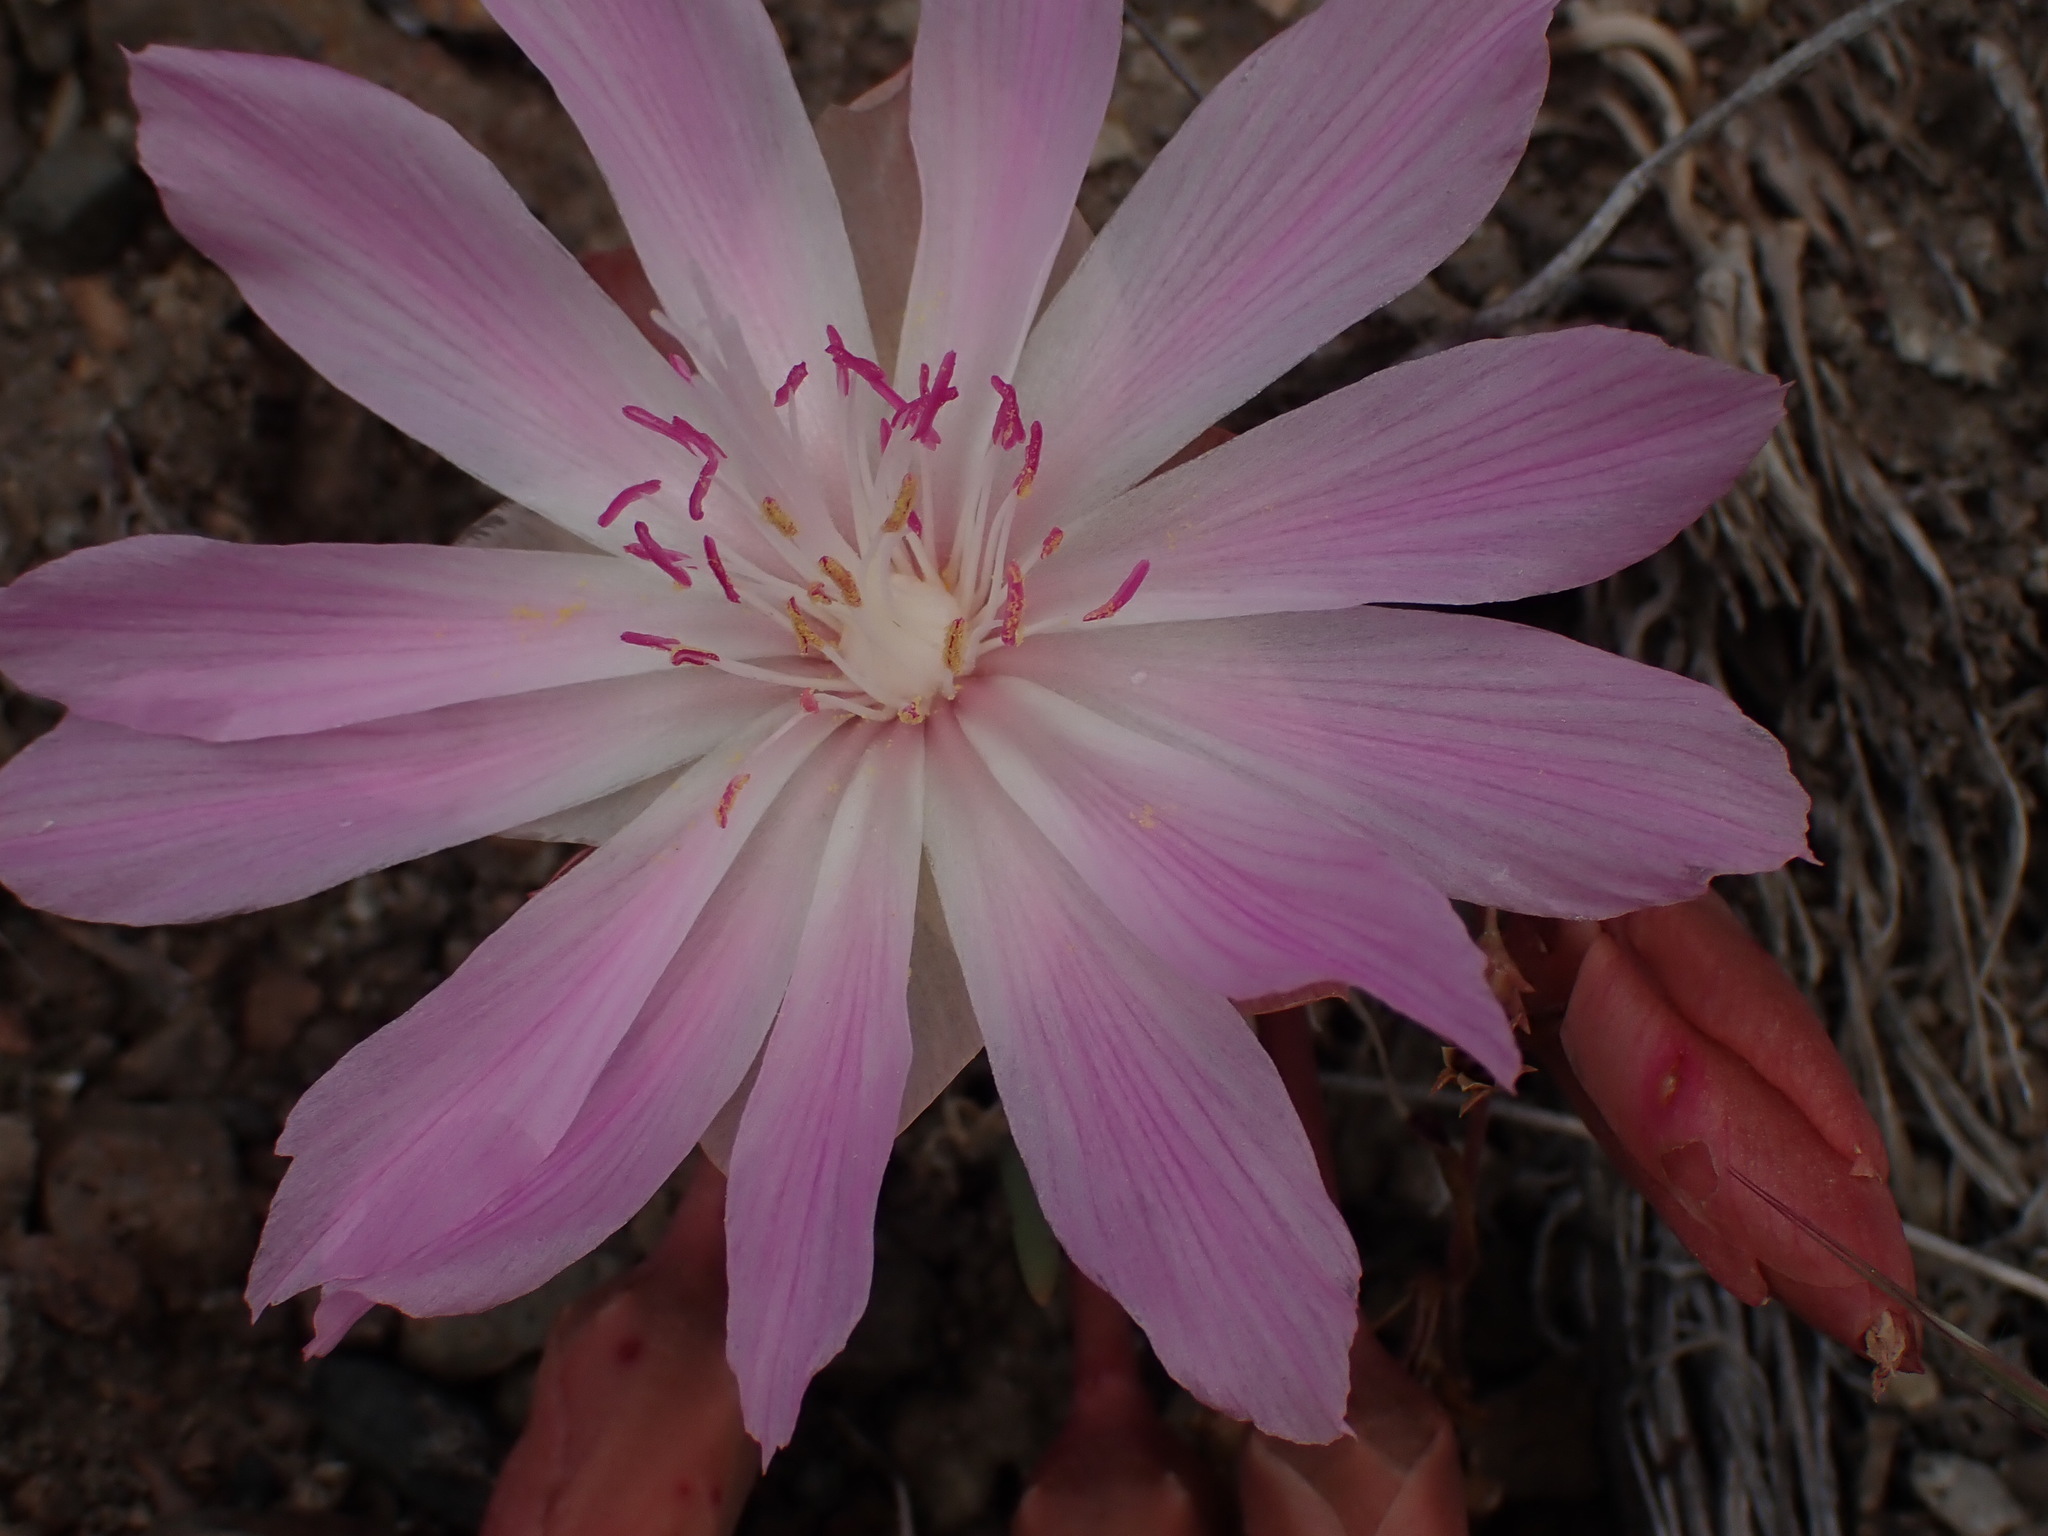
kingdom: Plantae
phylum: Tracheophyta
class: Magnoliopsida
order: Caryophyllales
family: Montiaceae
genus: Lewisia
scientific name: Lewisia rediviva
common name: Bitter-root
